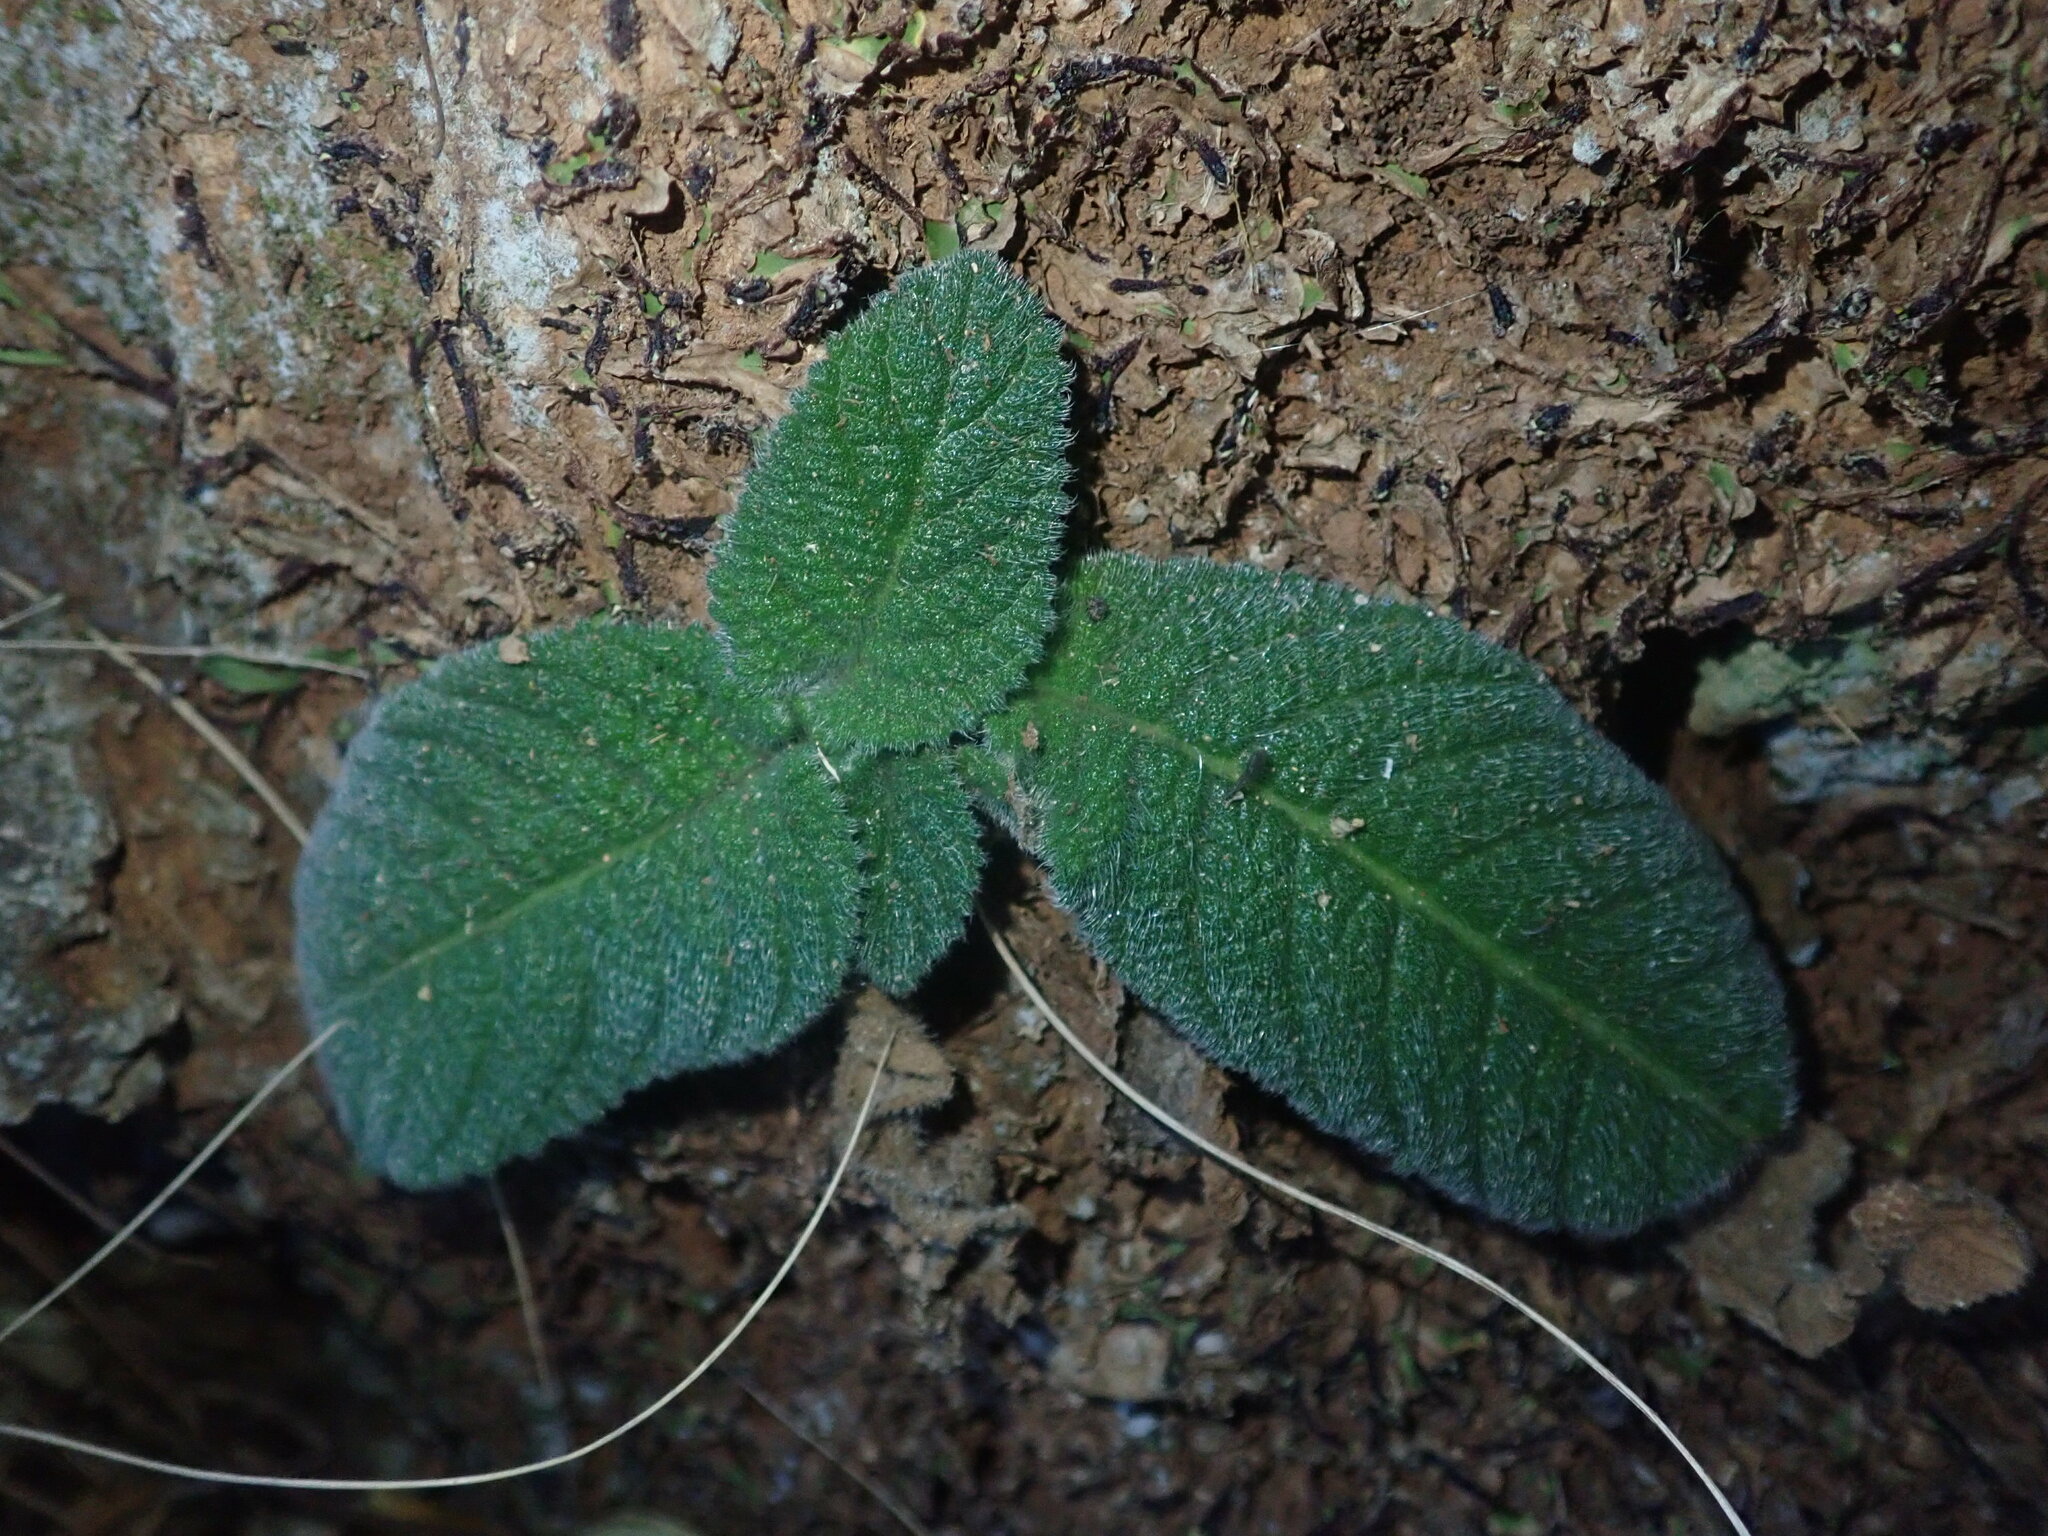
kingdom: Plantae
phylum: Tracheophyta
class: Magnoliopsida
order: Lamiales
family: Gesneriaceae
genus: Streptocarpus
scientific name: Streptocarpus cyaneus
